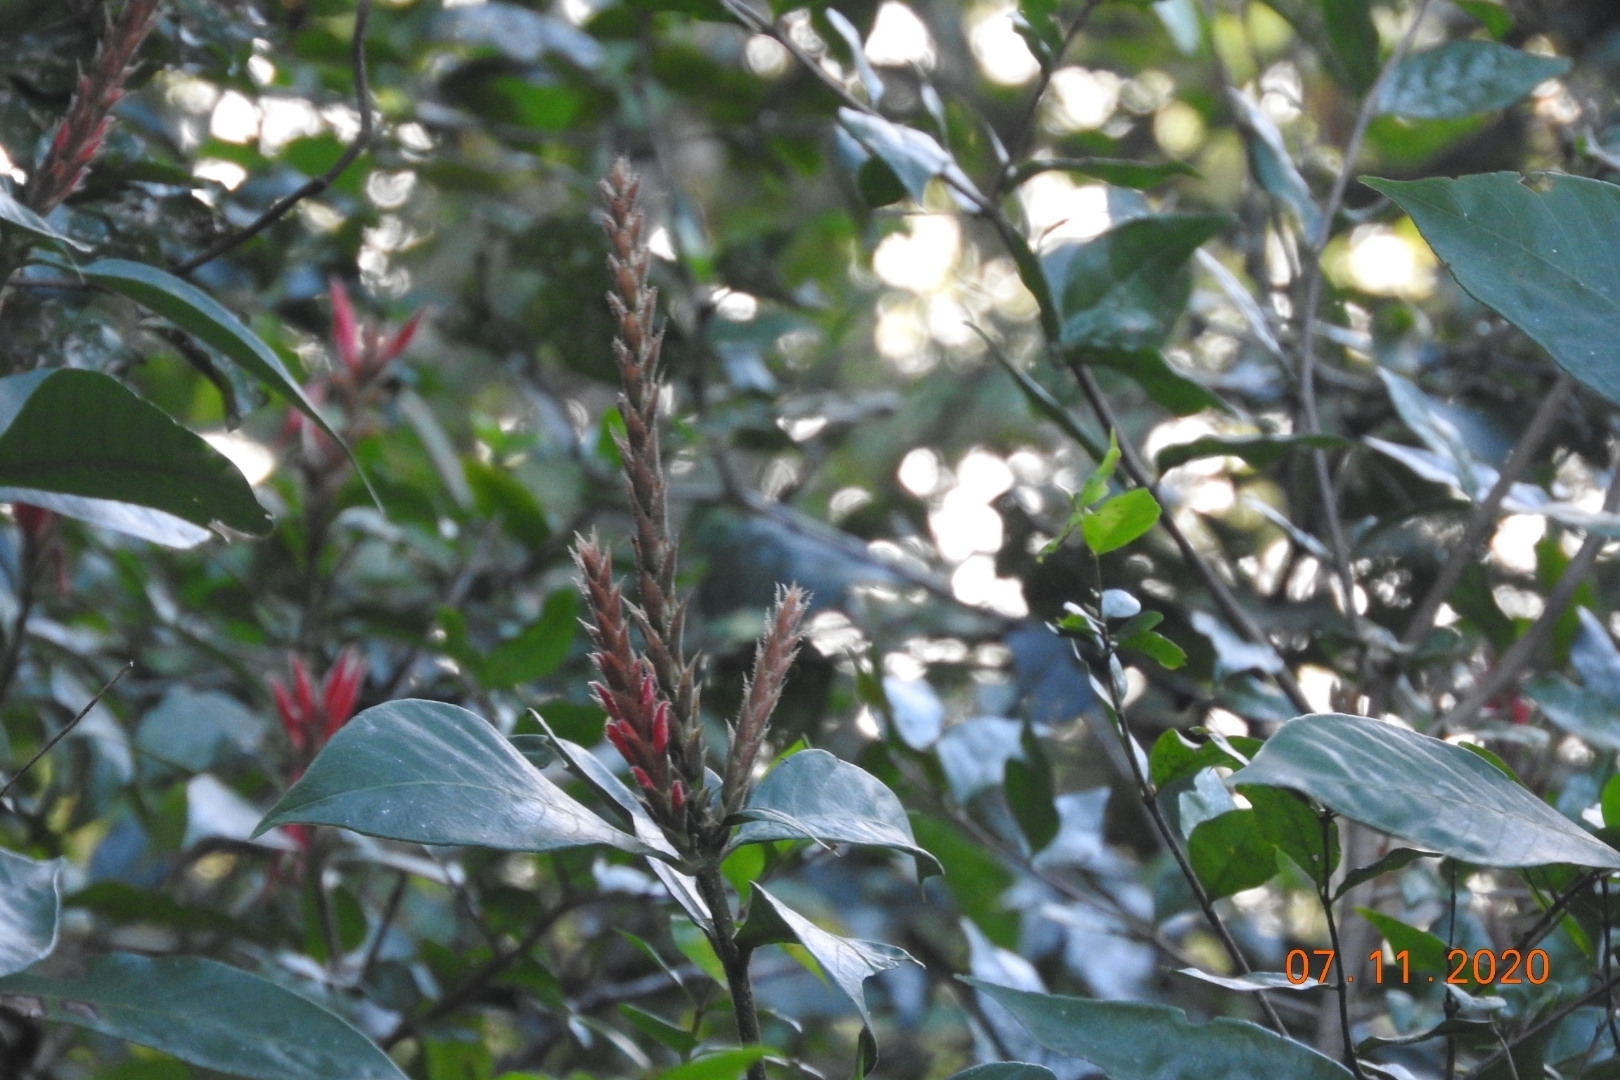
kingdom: Plantae
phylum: Tracheophyta
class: Magnoliopsida
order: Lamiales
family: Acanthaceae
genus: Aphelandra
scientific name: Aphelandra scabra
